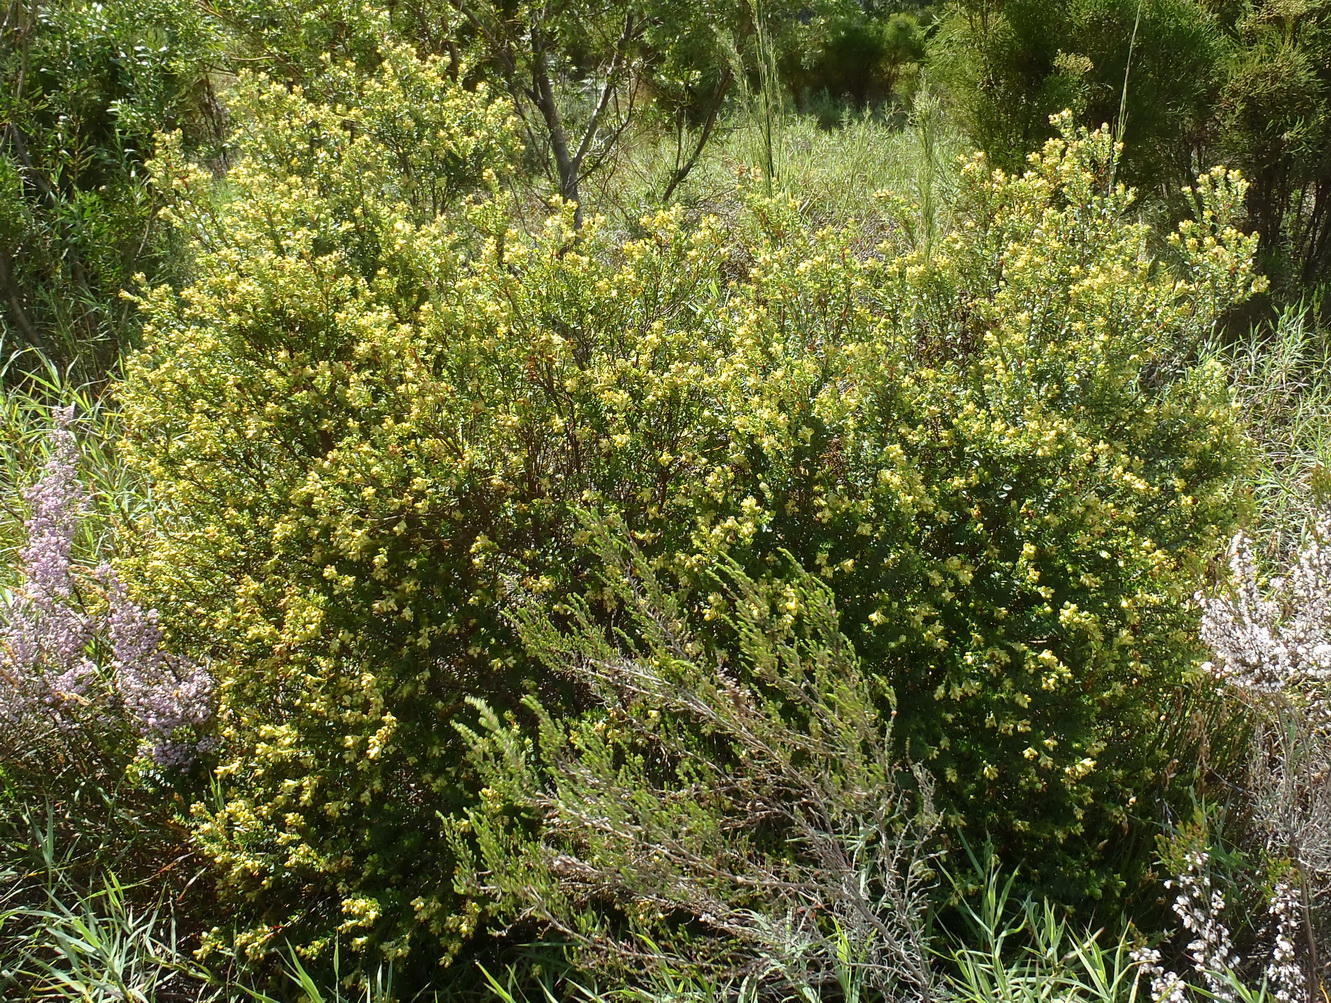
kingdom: Plantae
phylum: Tracheophyta
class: Magnoliopsida
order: Myrtales
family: Penaeaceae
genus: Penaea
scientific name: Penaea cneorum
